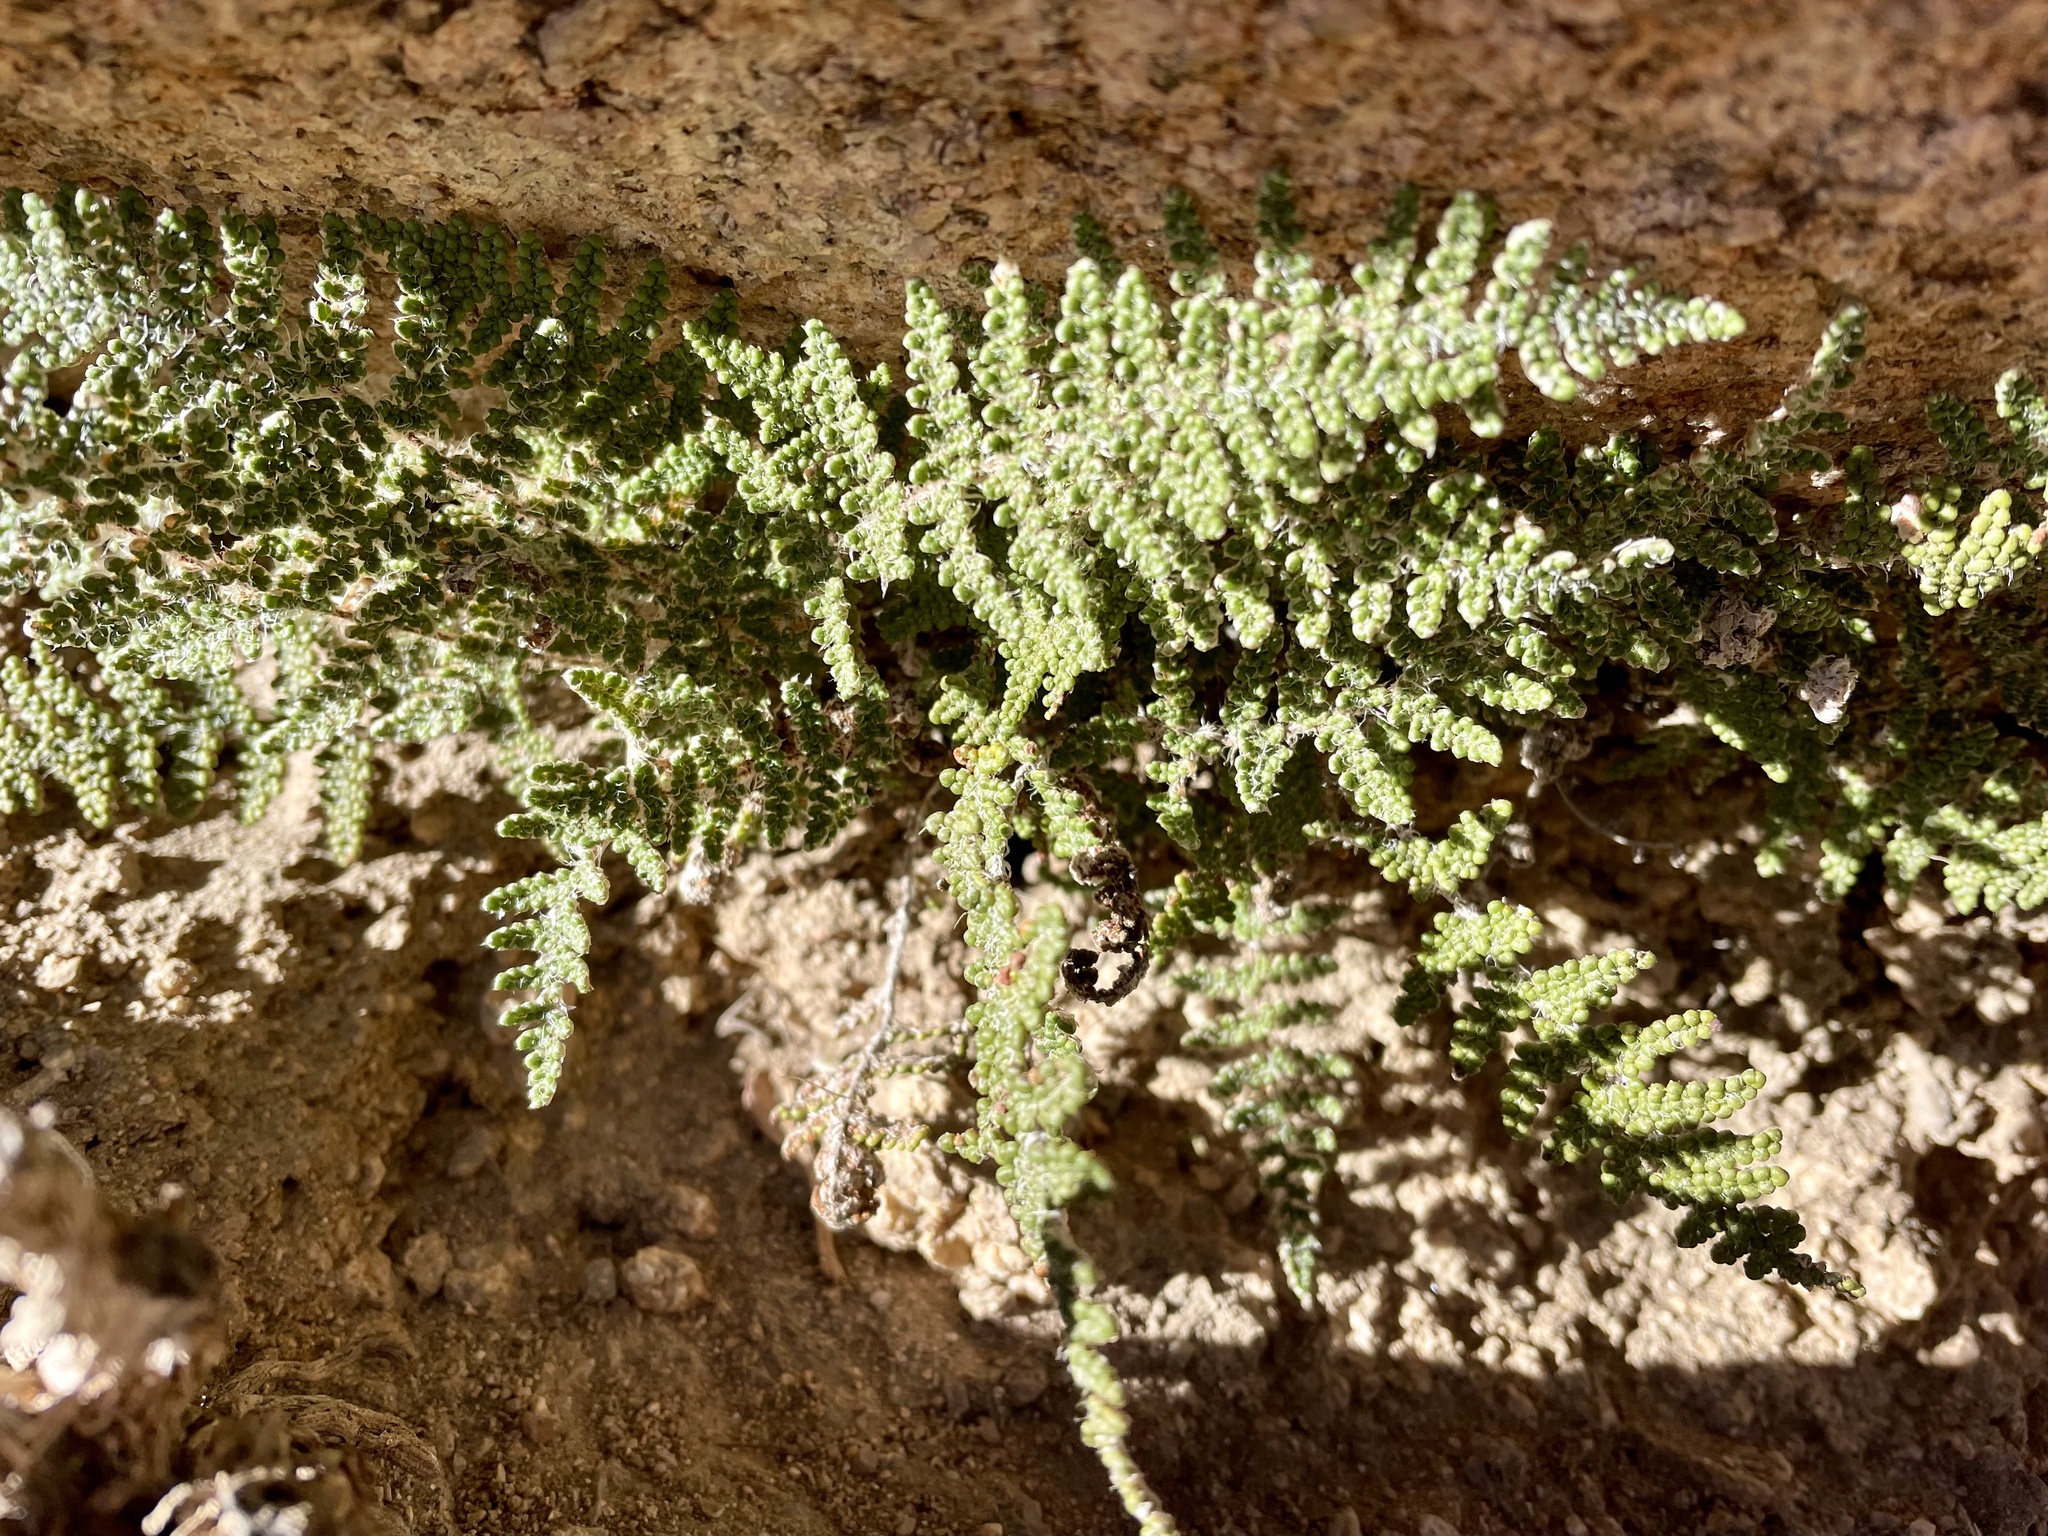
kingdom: Plantae
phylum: Tracheophyta
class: Polypodiopsida
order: Polypodiales
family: Pteridaceae
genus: Myriopteris
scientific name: Myriopteris covillei
